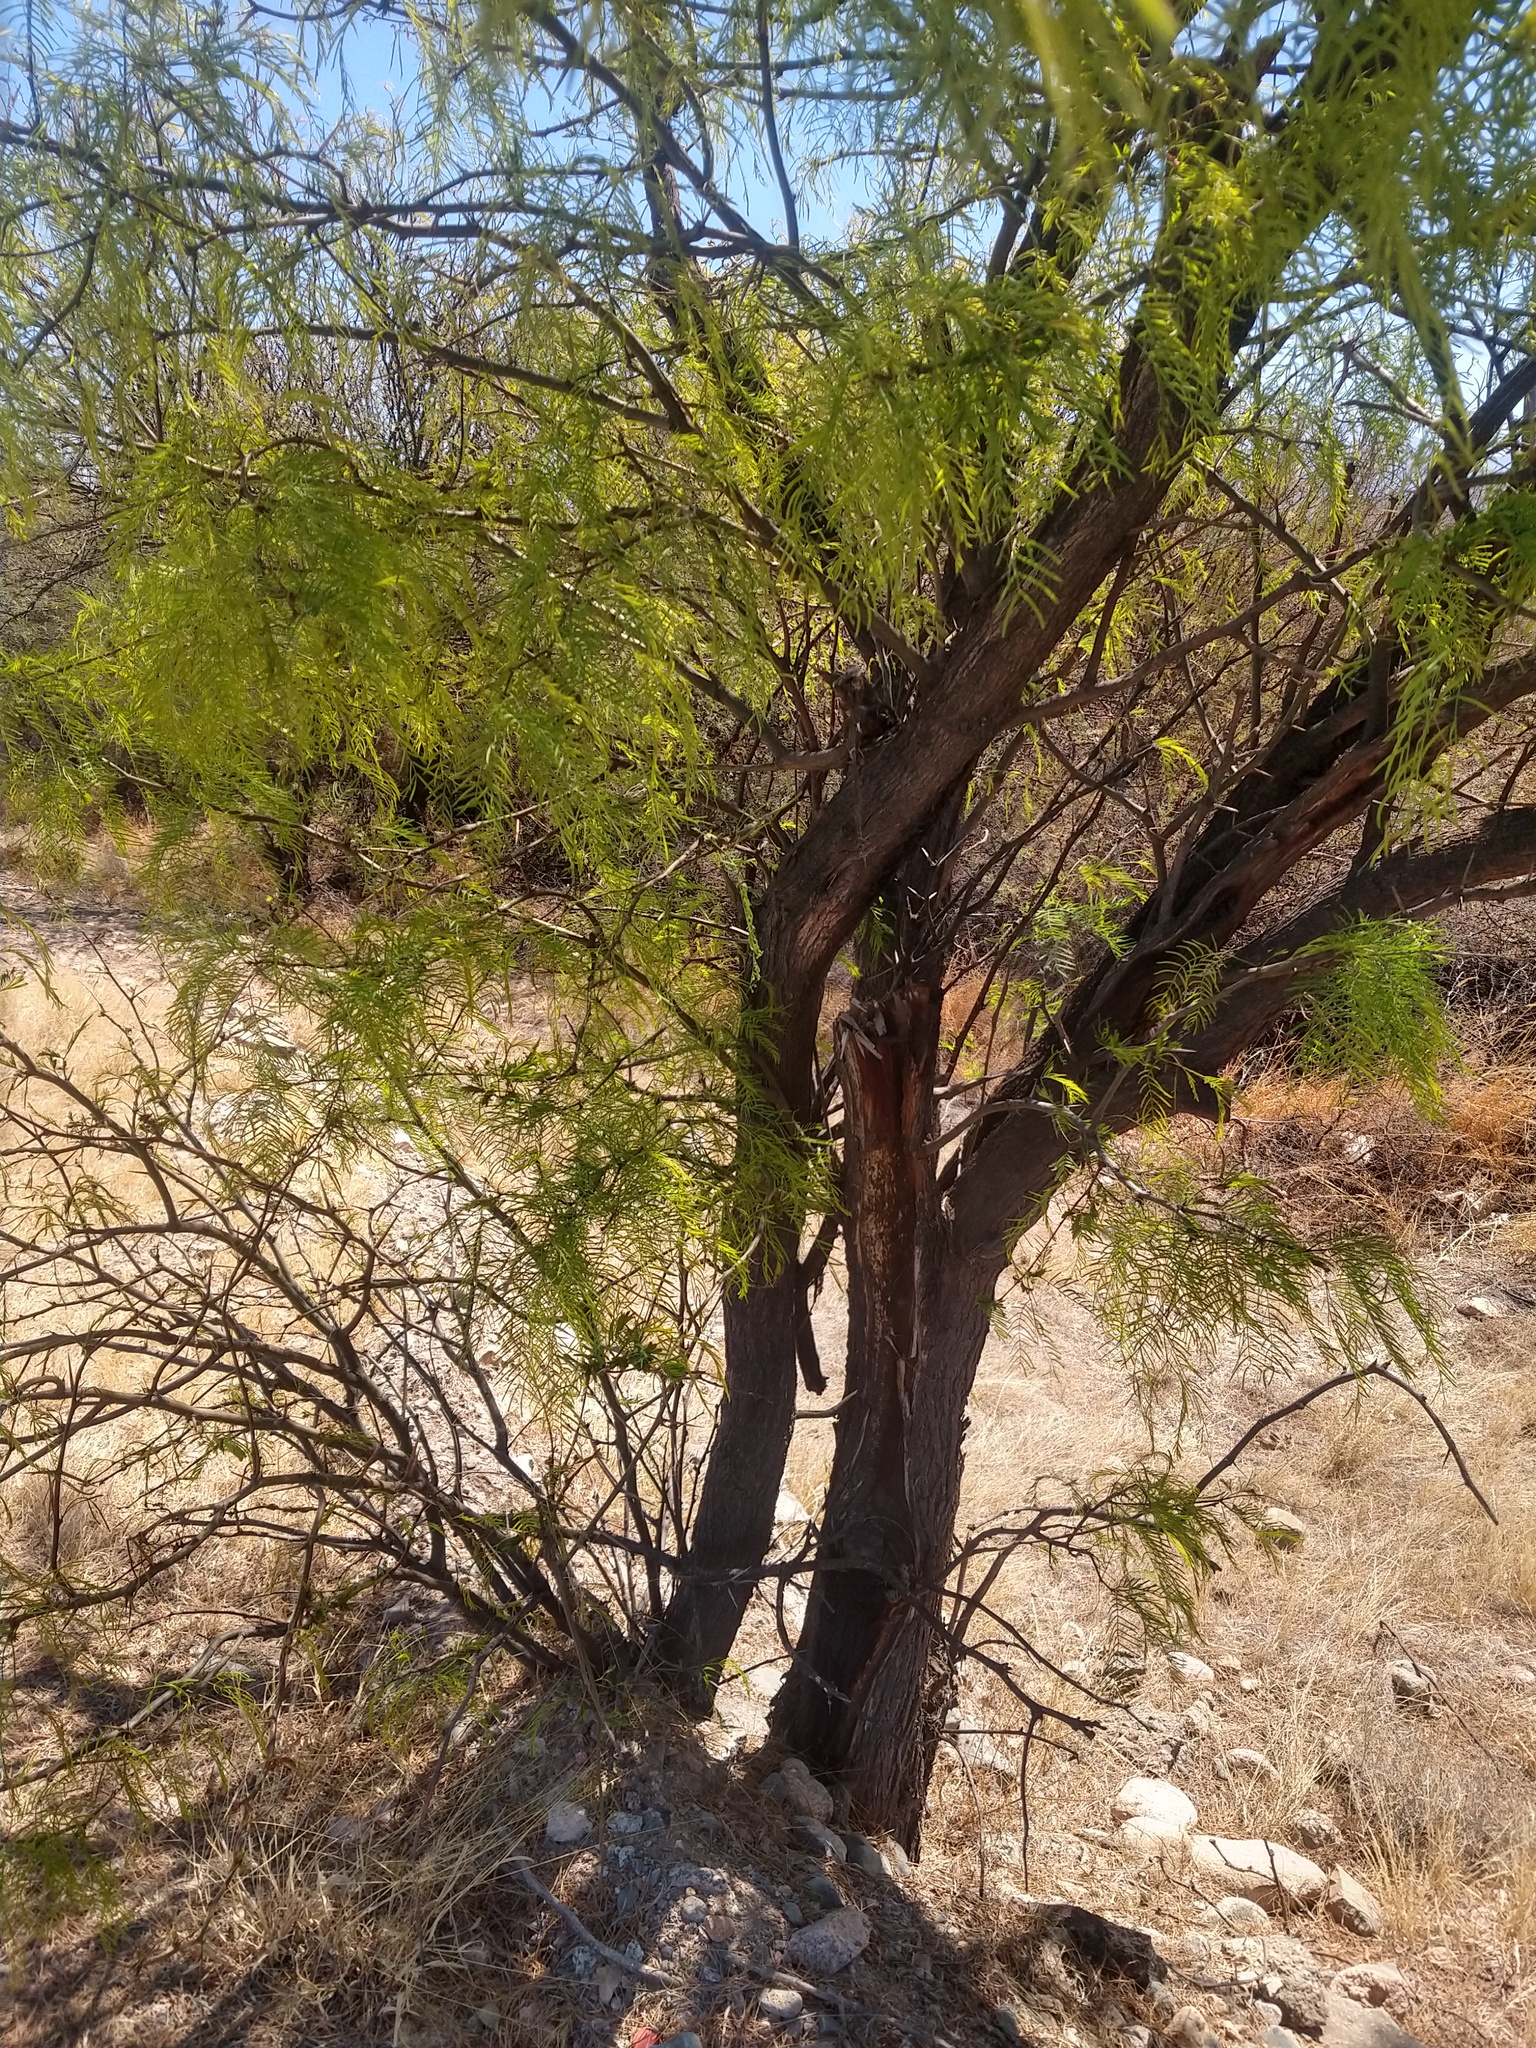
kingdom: Plantae
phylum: Tracheophyta
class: Magnoliopsida
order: Fabales
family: Fabaceae
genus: Prosopis
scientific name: Prosopis chilensis
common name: Chilean algarrobo
